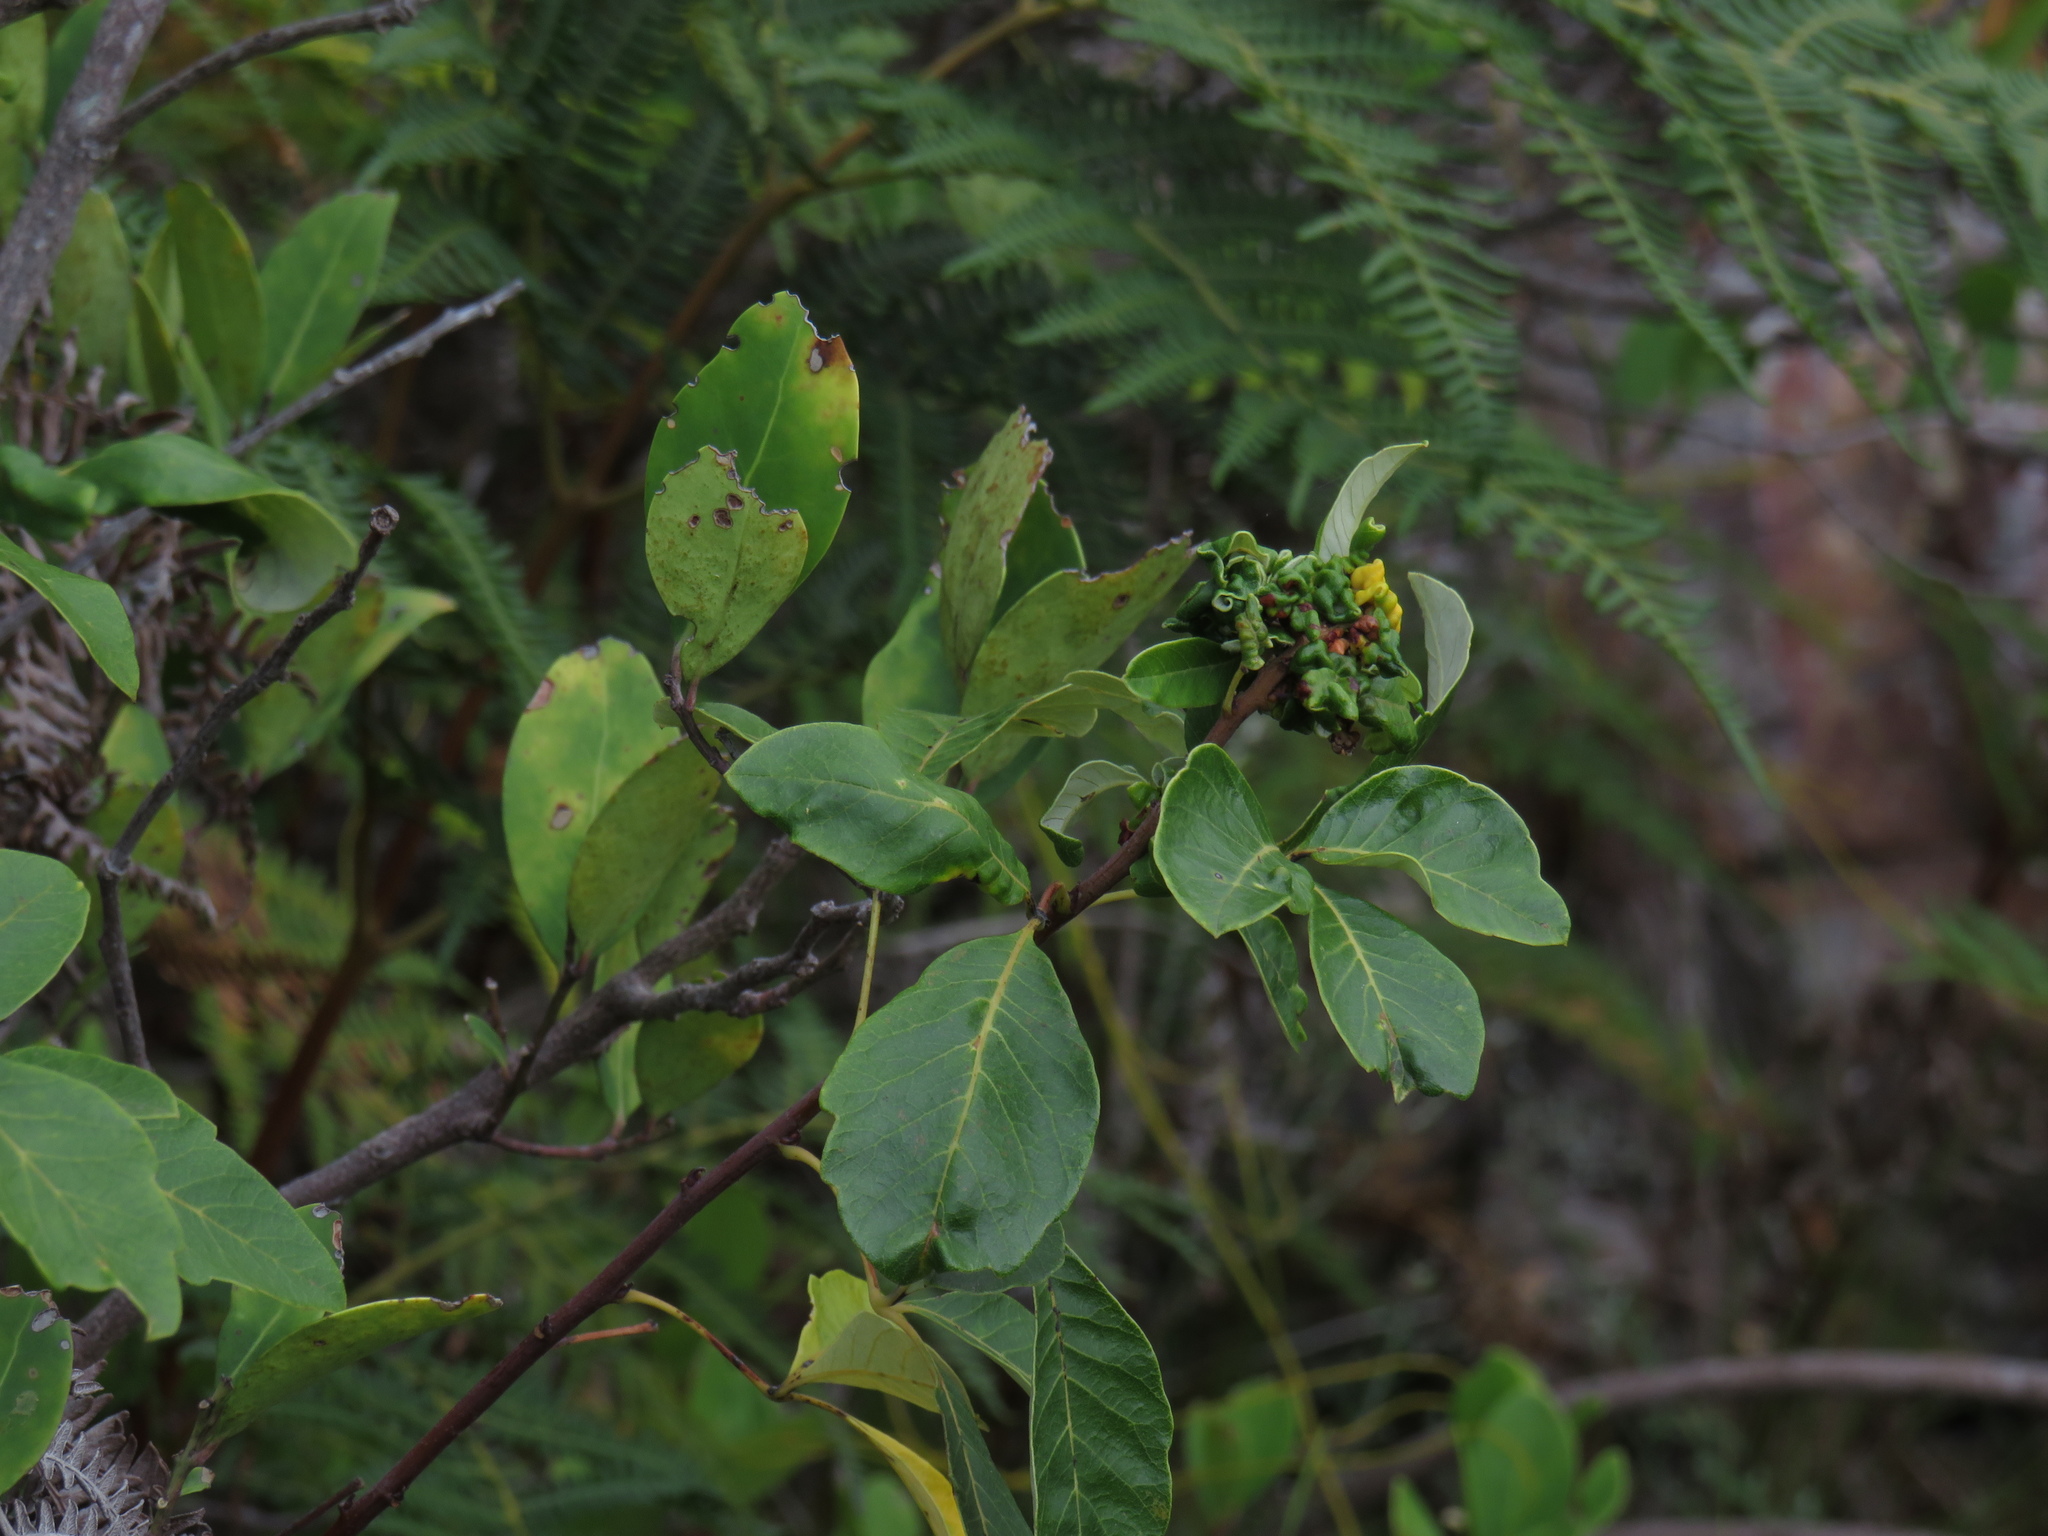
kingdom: Plantae
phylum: Tracheophyta
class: Magnoliopsida
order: Sapindales
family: Anacardiaceae
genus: Searsia
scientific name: Searsia tomentosa
